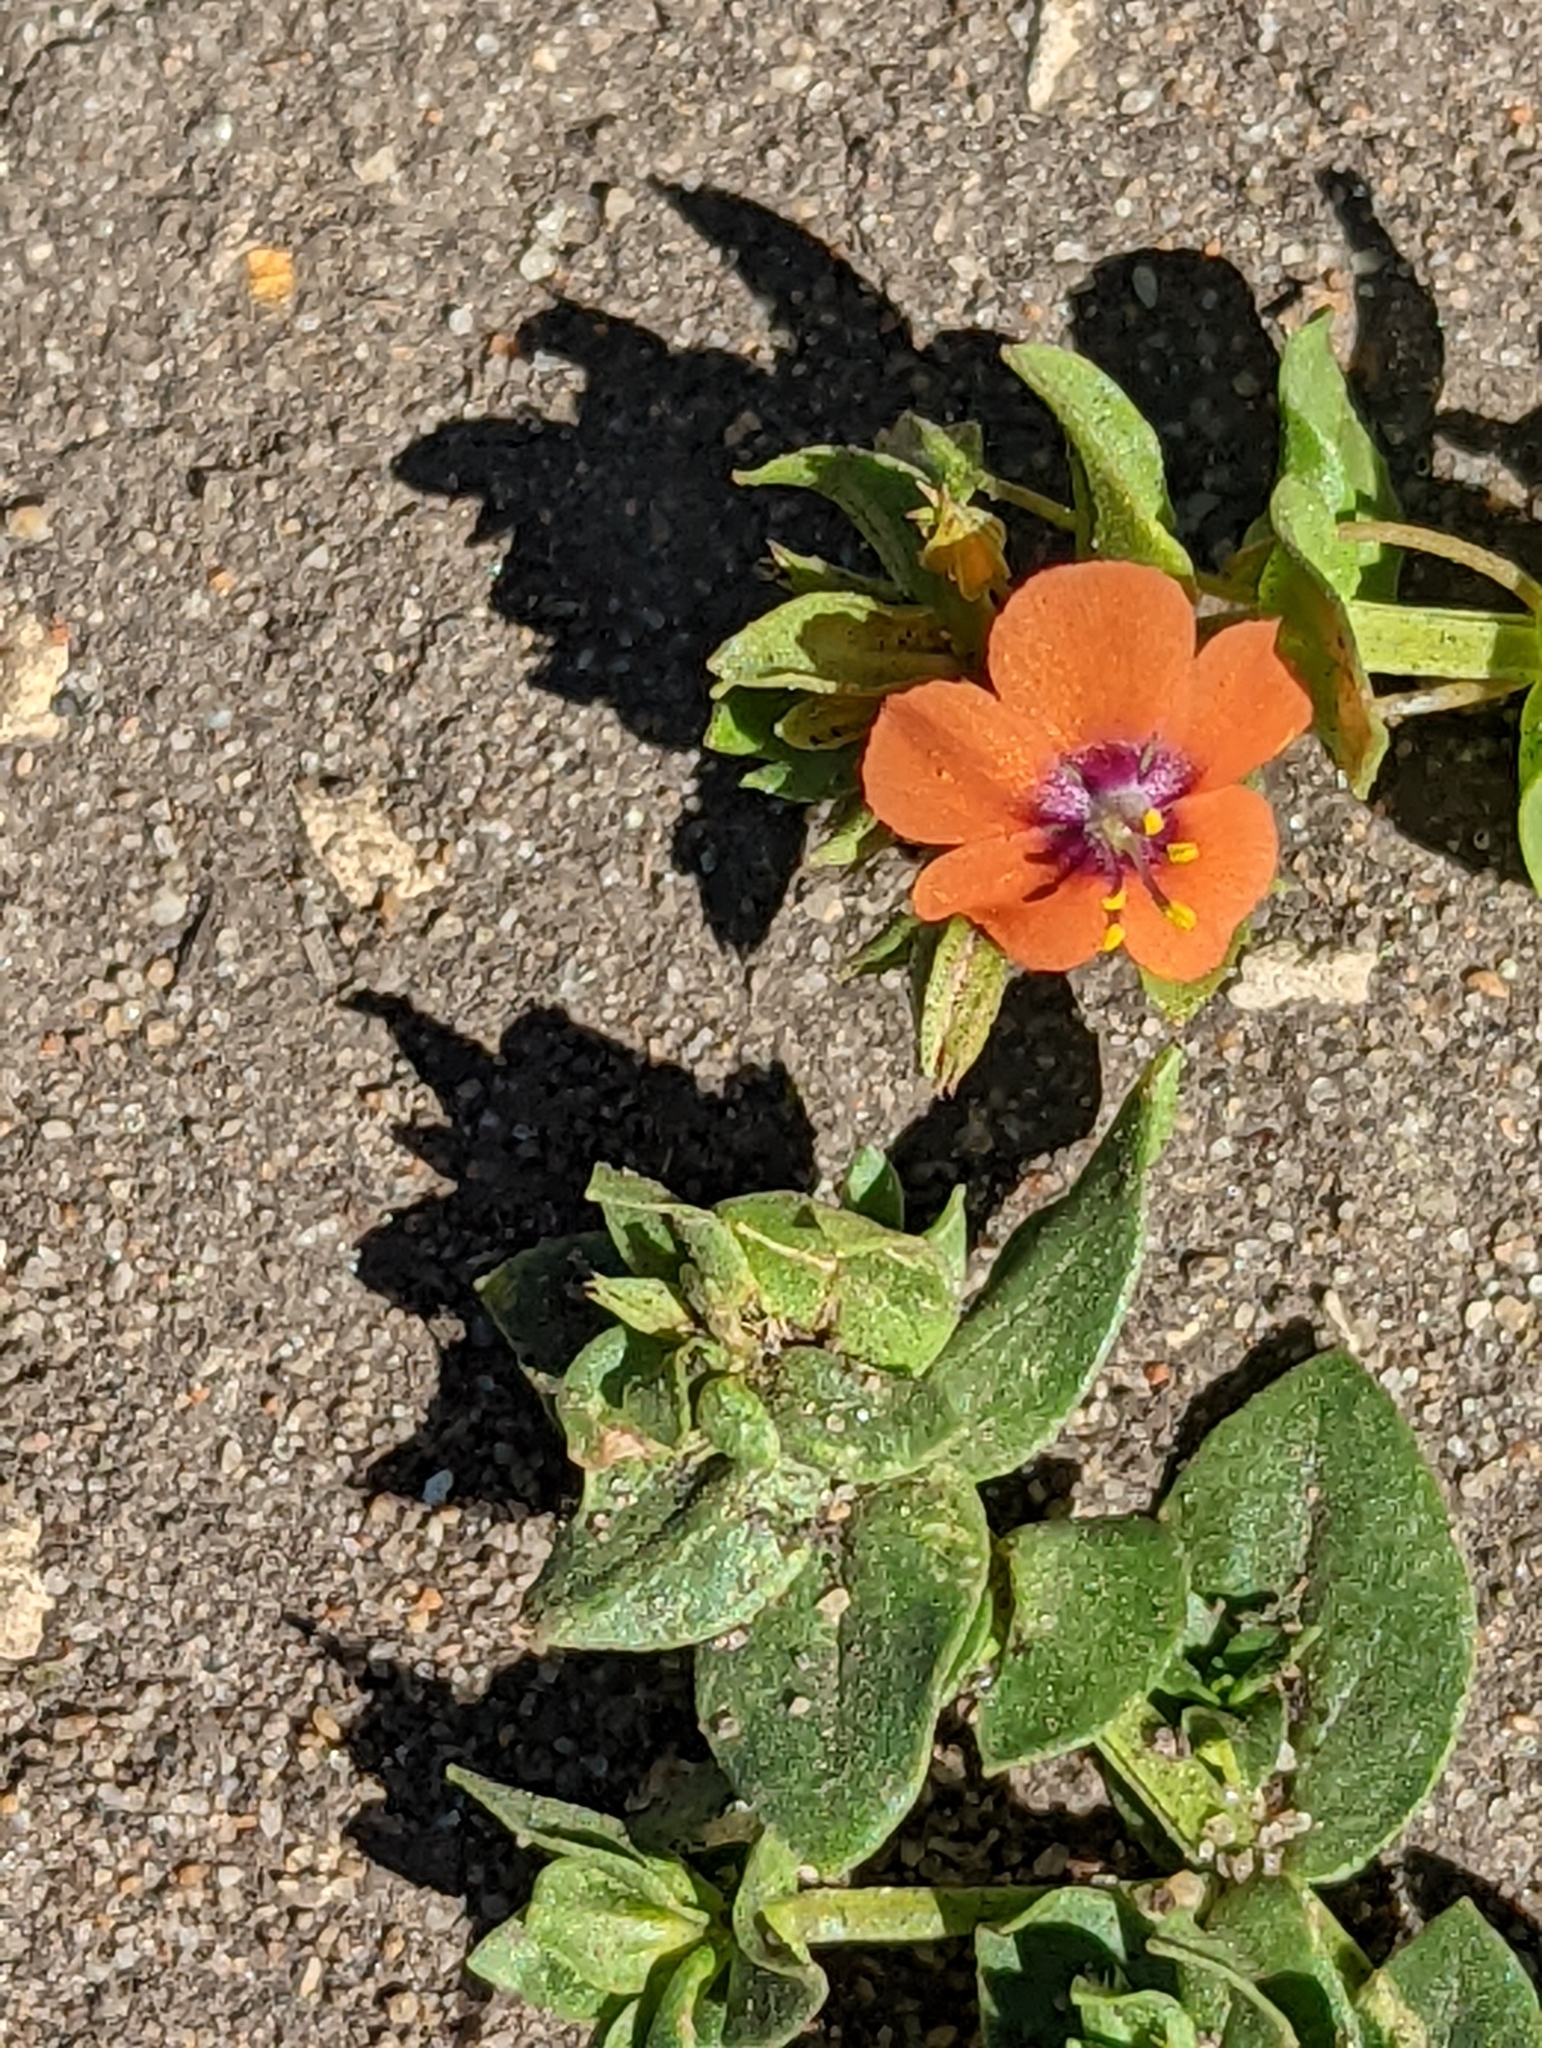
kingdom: Plantae
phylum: Tracheophyta
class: Magnoliopsida
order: Ericales
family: Primulaceae
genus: Lysimachia
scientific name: Lysimachia arvensis
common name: Scarlet pimpernel
